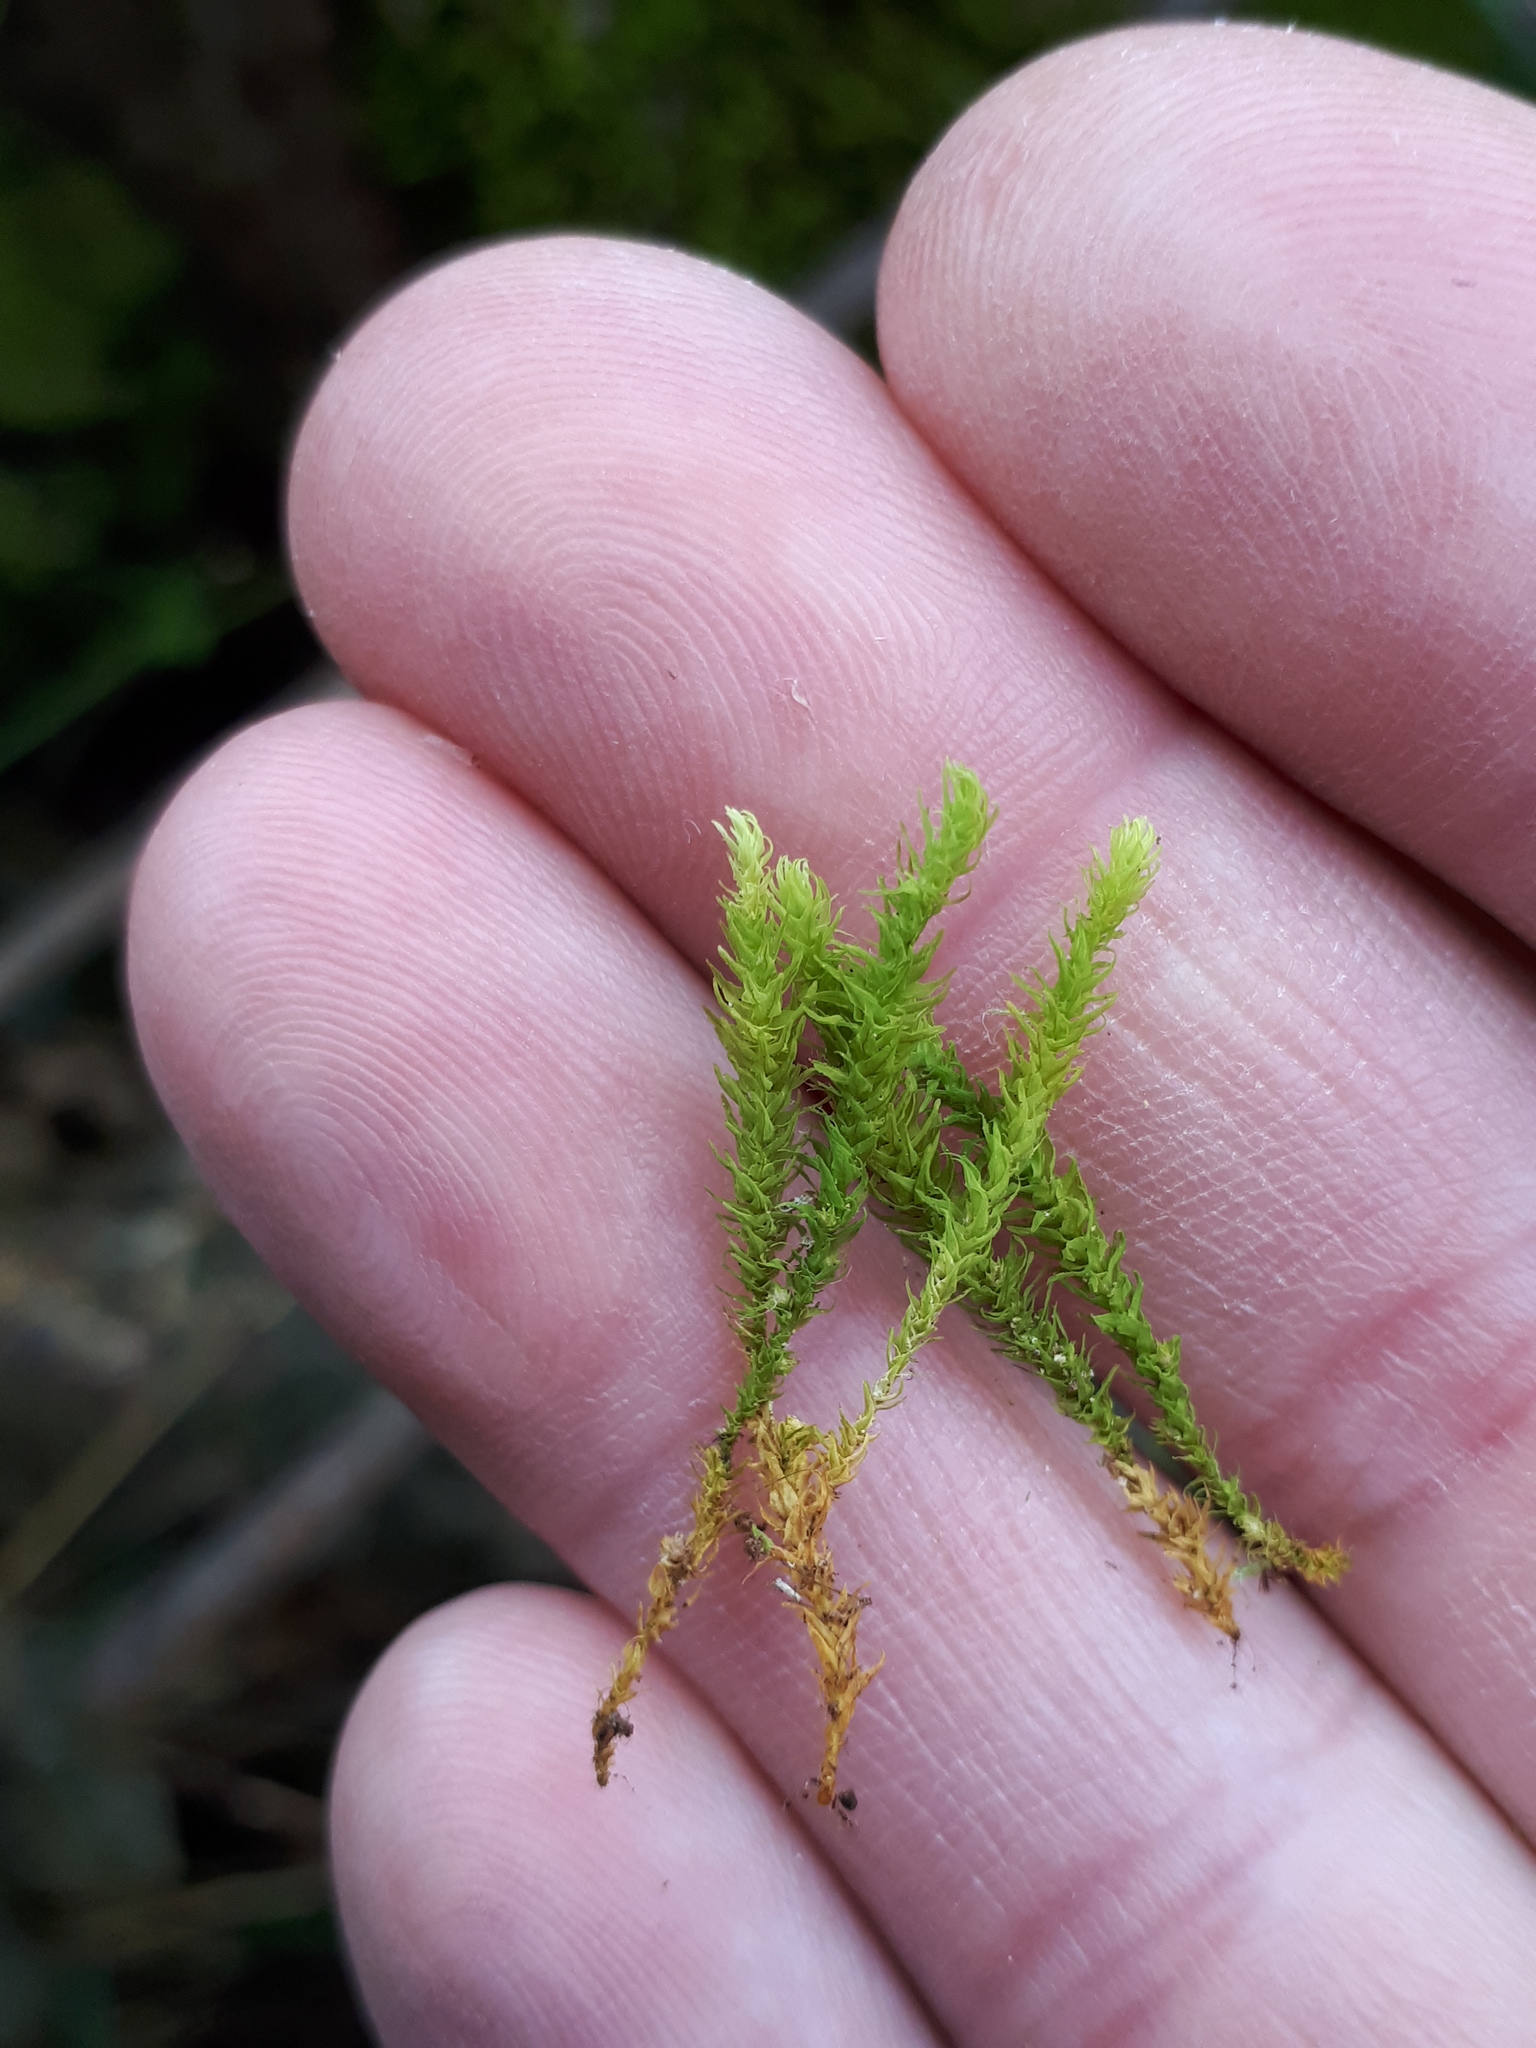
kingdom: Plantae
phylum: Bryophyta
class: Bryopsida
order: Hypnales
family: Anomodontaceae
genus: Anomodon
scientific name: Anomodon viticulosus
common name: Tall anomodon
